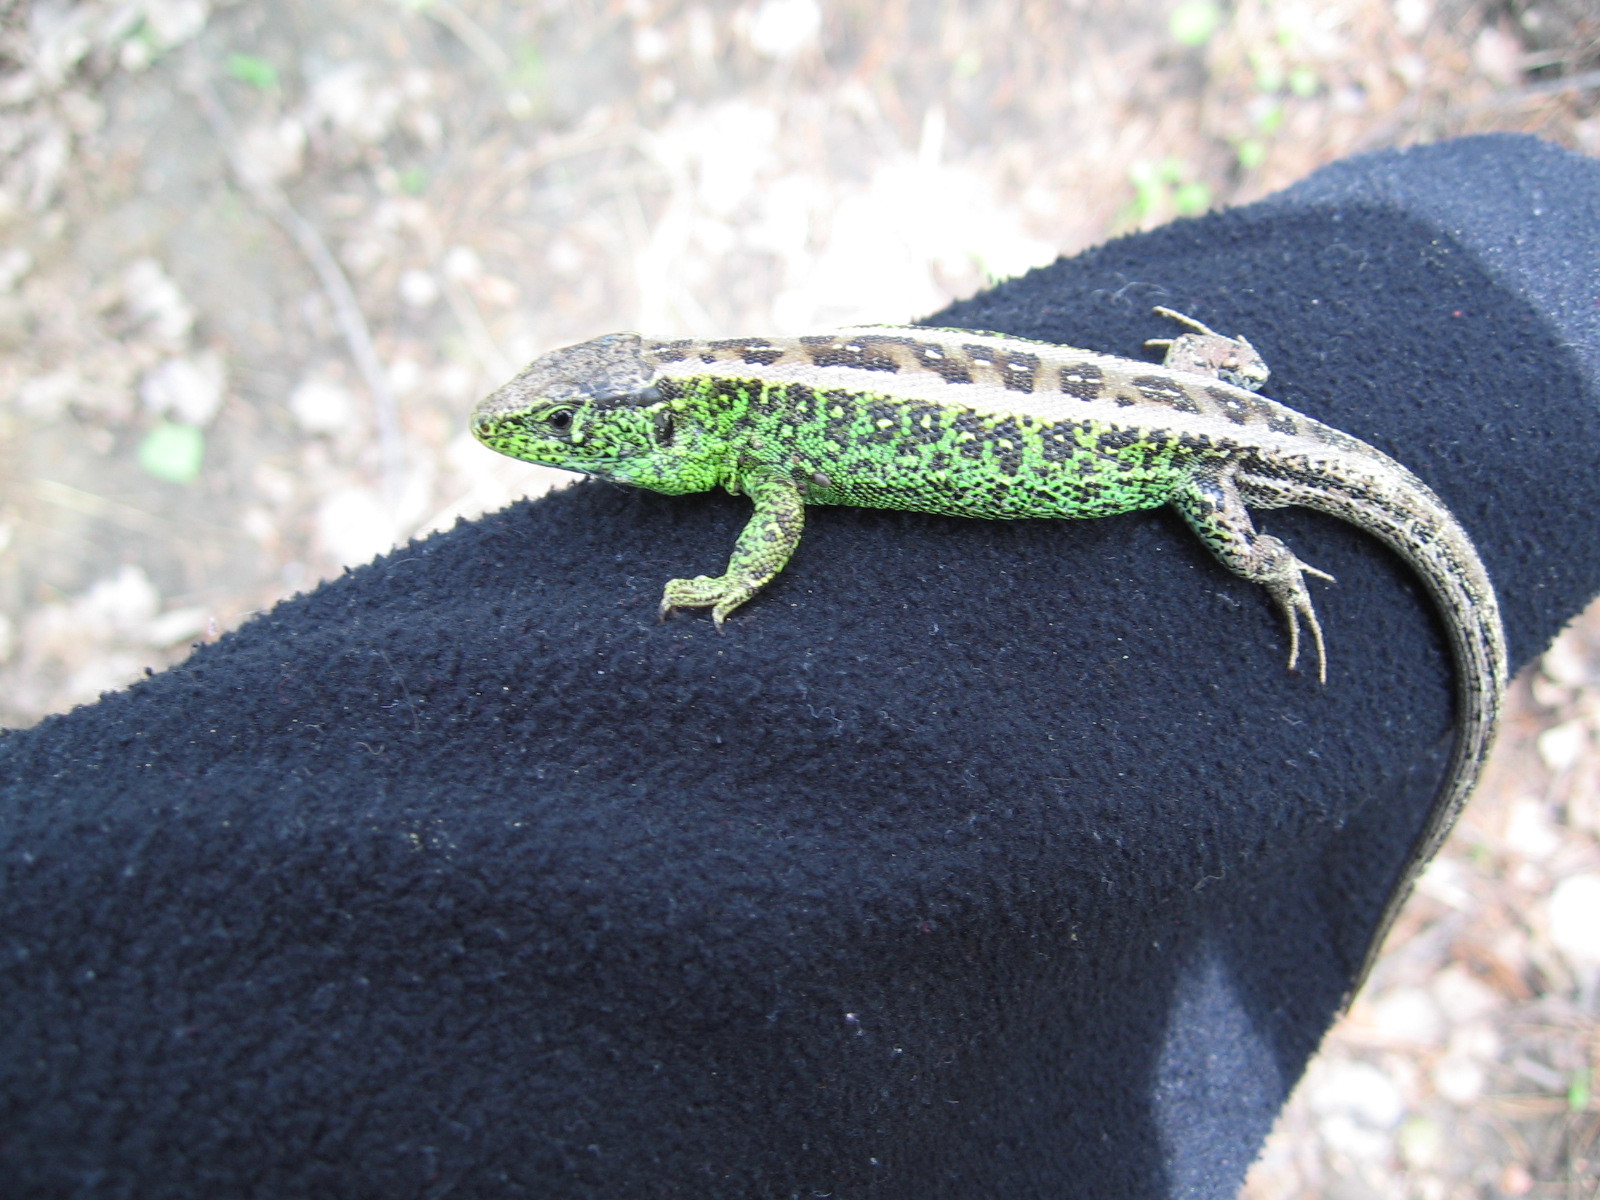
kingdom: Animalia
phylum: Chordata
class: Squamata
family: Lacertidae
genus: Lacerta
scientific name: Lacerta agilis
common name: Sand lizard
